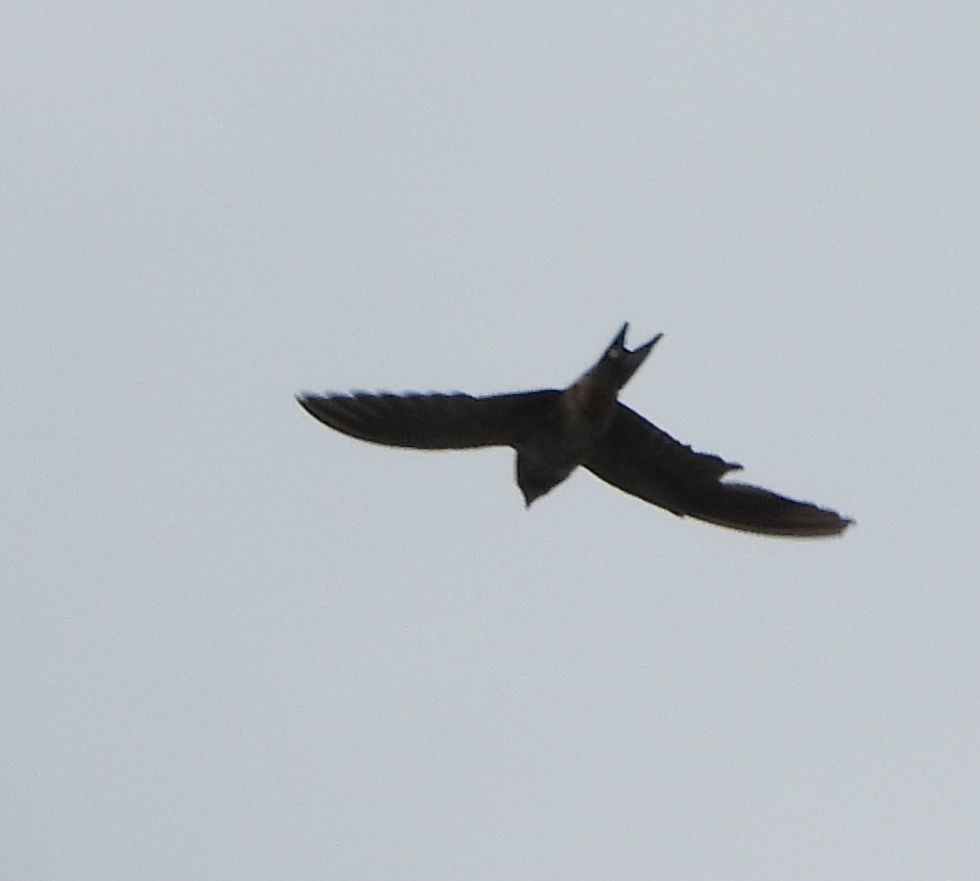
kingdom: Animalia
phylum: Chordata
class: Aves
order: Passeriformes
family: Hirundinidae
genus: Hirundo
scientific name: Hirundo rustica
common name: Barn swallow
